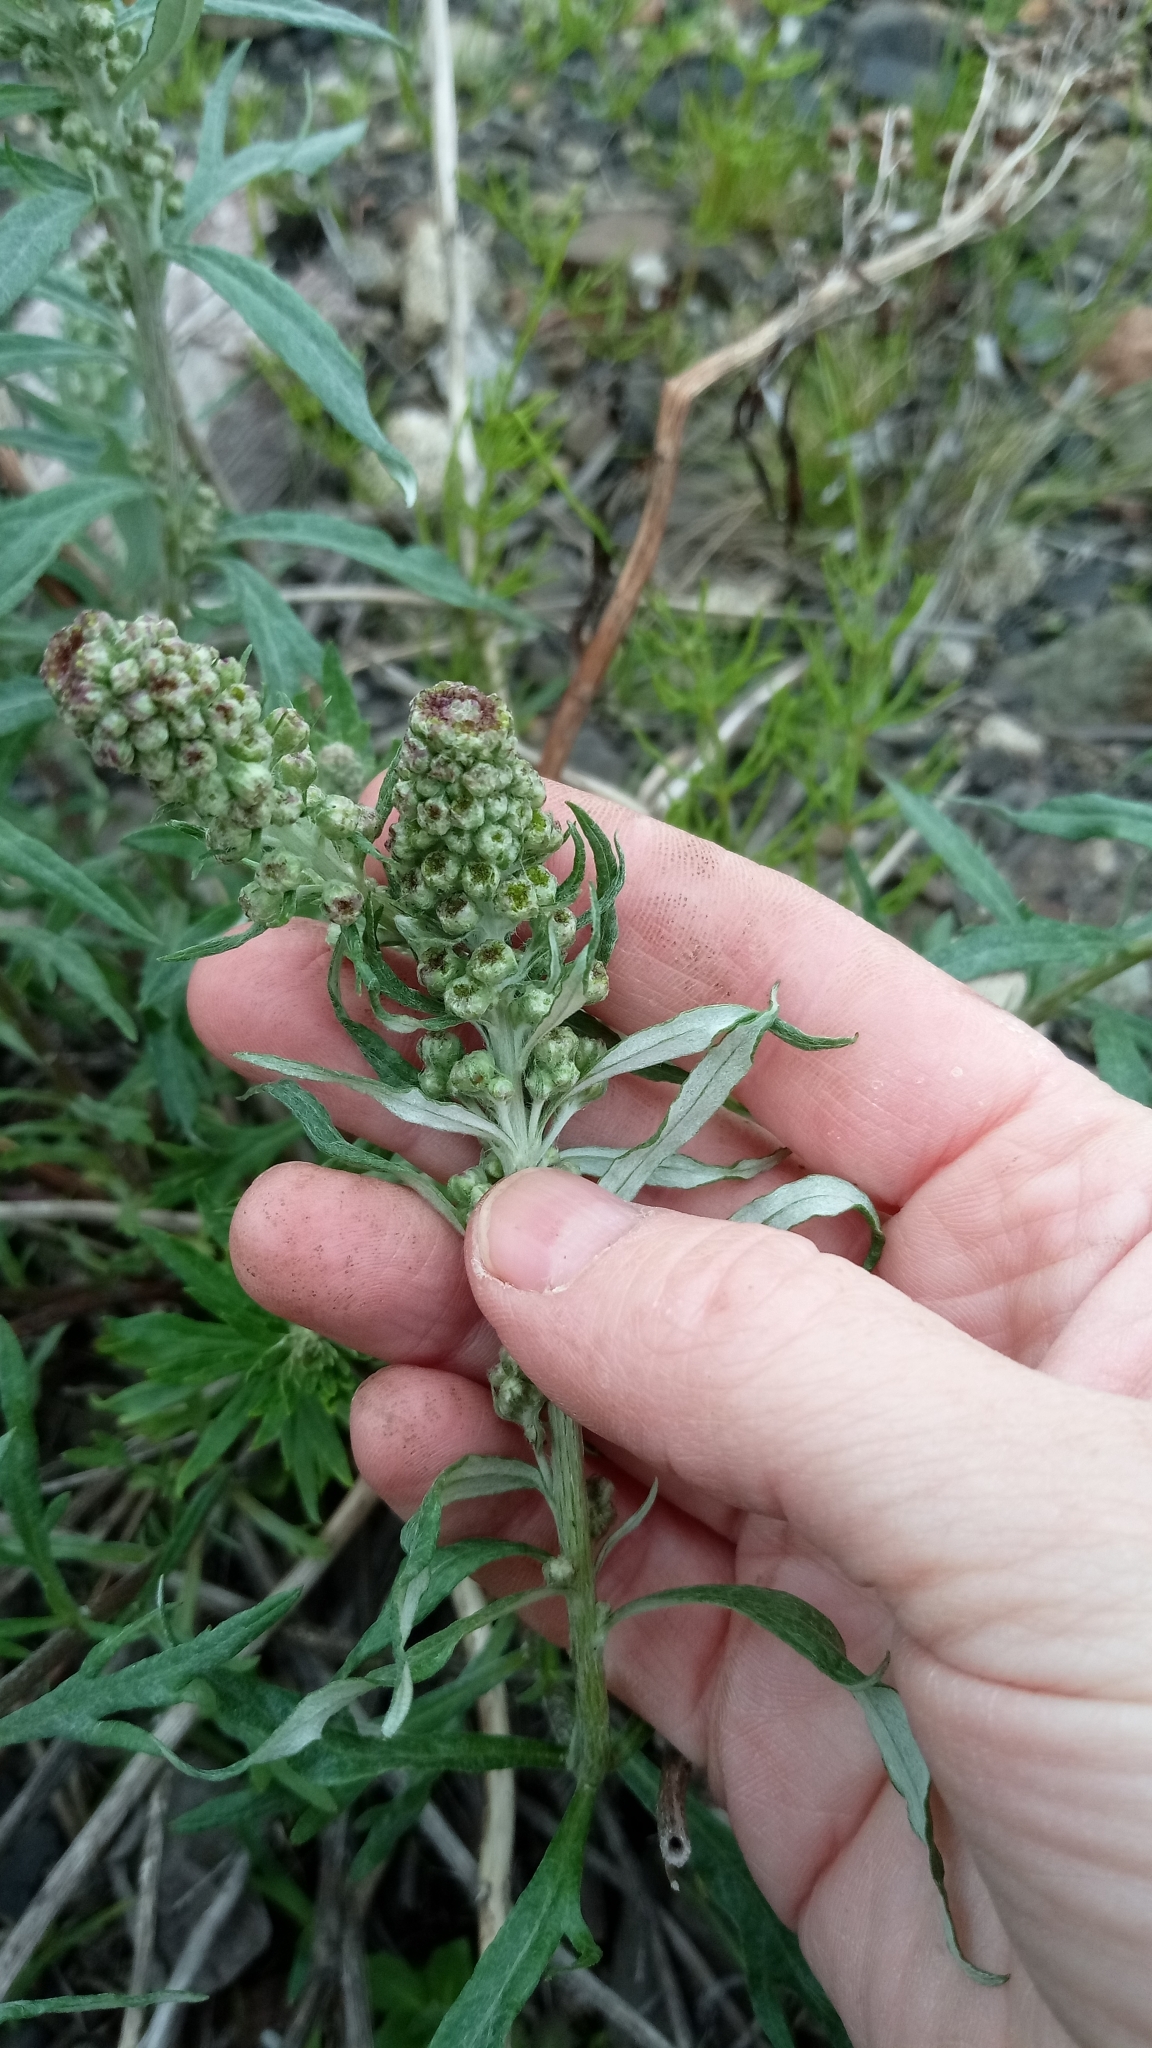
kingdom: Plantae
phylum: Tracheophyta
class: Magnoliopsida
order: Asterales
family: Asteraceae
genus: Artemisia
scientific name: Artemisia tilesii
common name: Aleutian mugwort
